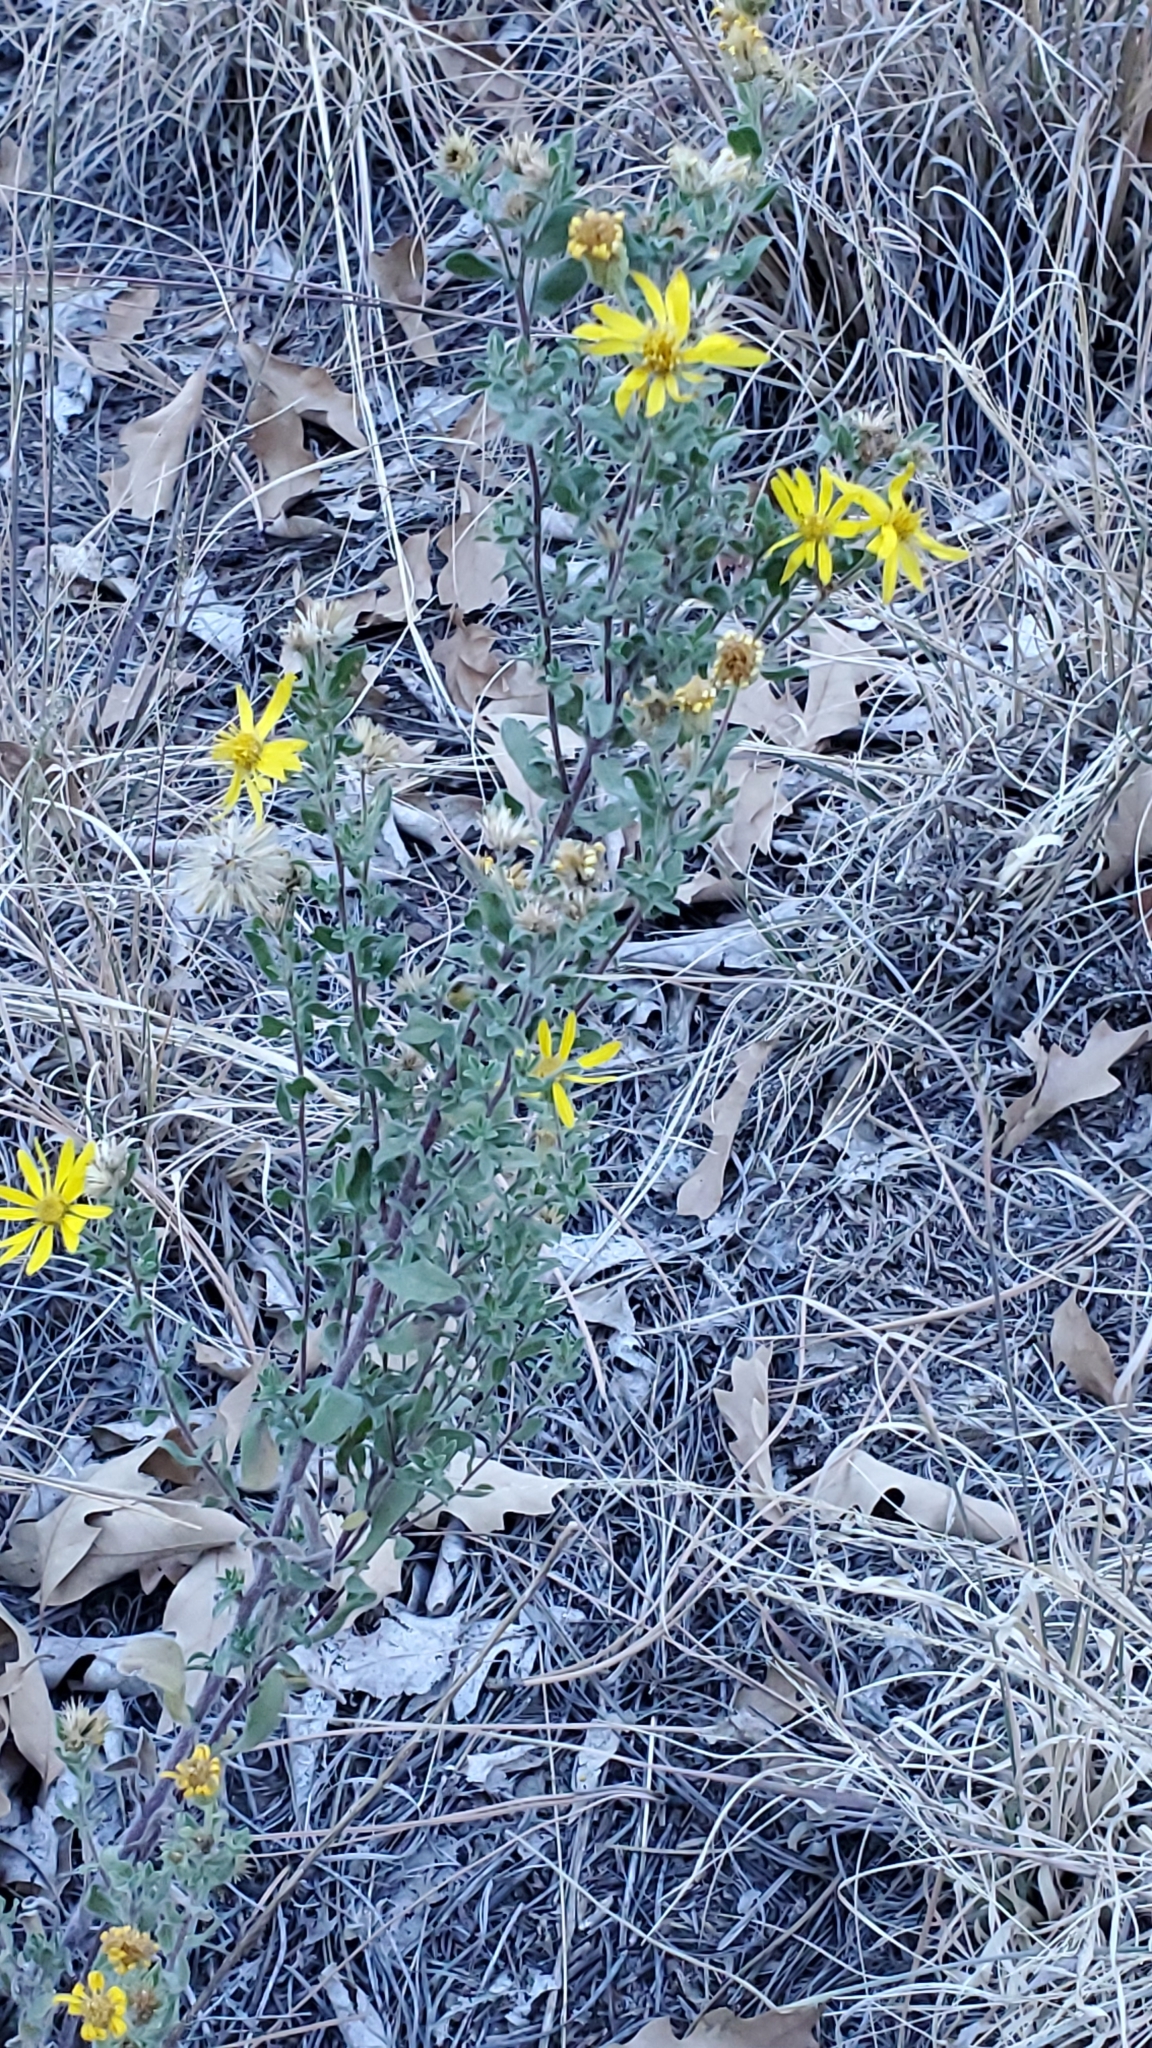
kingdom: Plantae
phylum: Tracheophyta
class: Magnoliopsida
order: Asterales
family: Asteraceae
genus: Heterotheca
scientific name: Heterotheca hirsutissima
